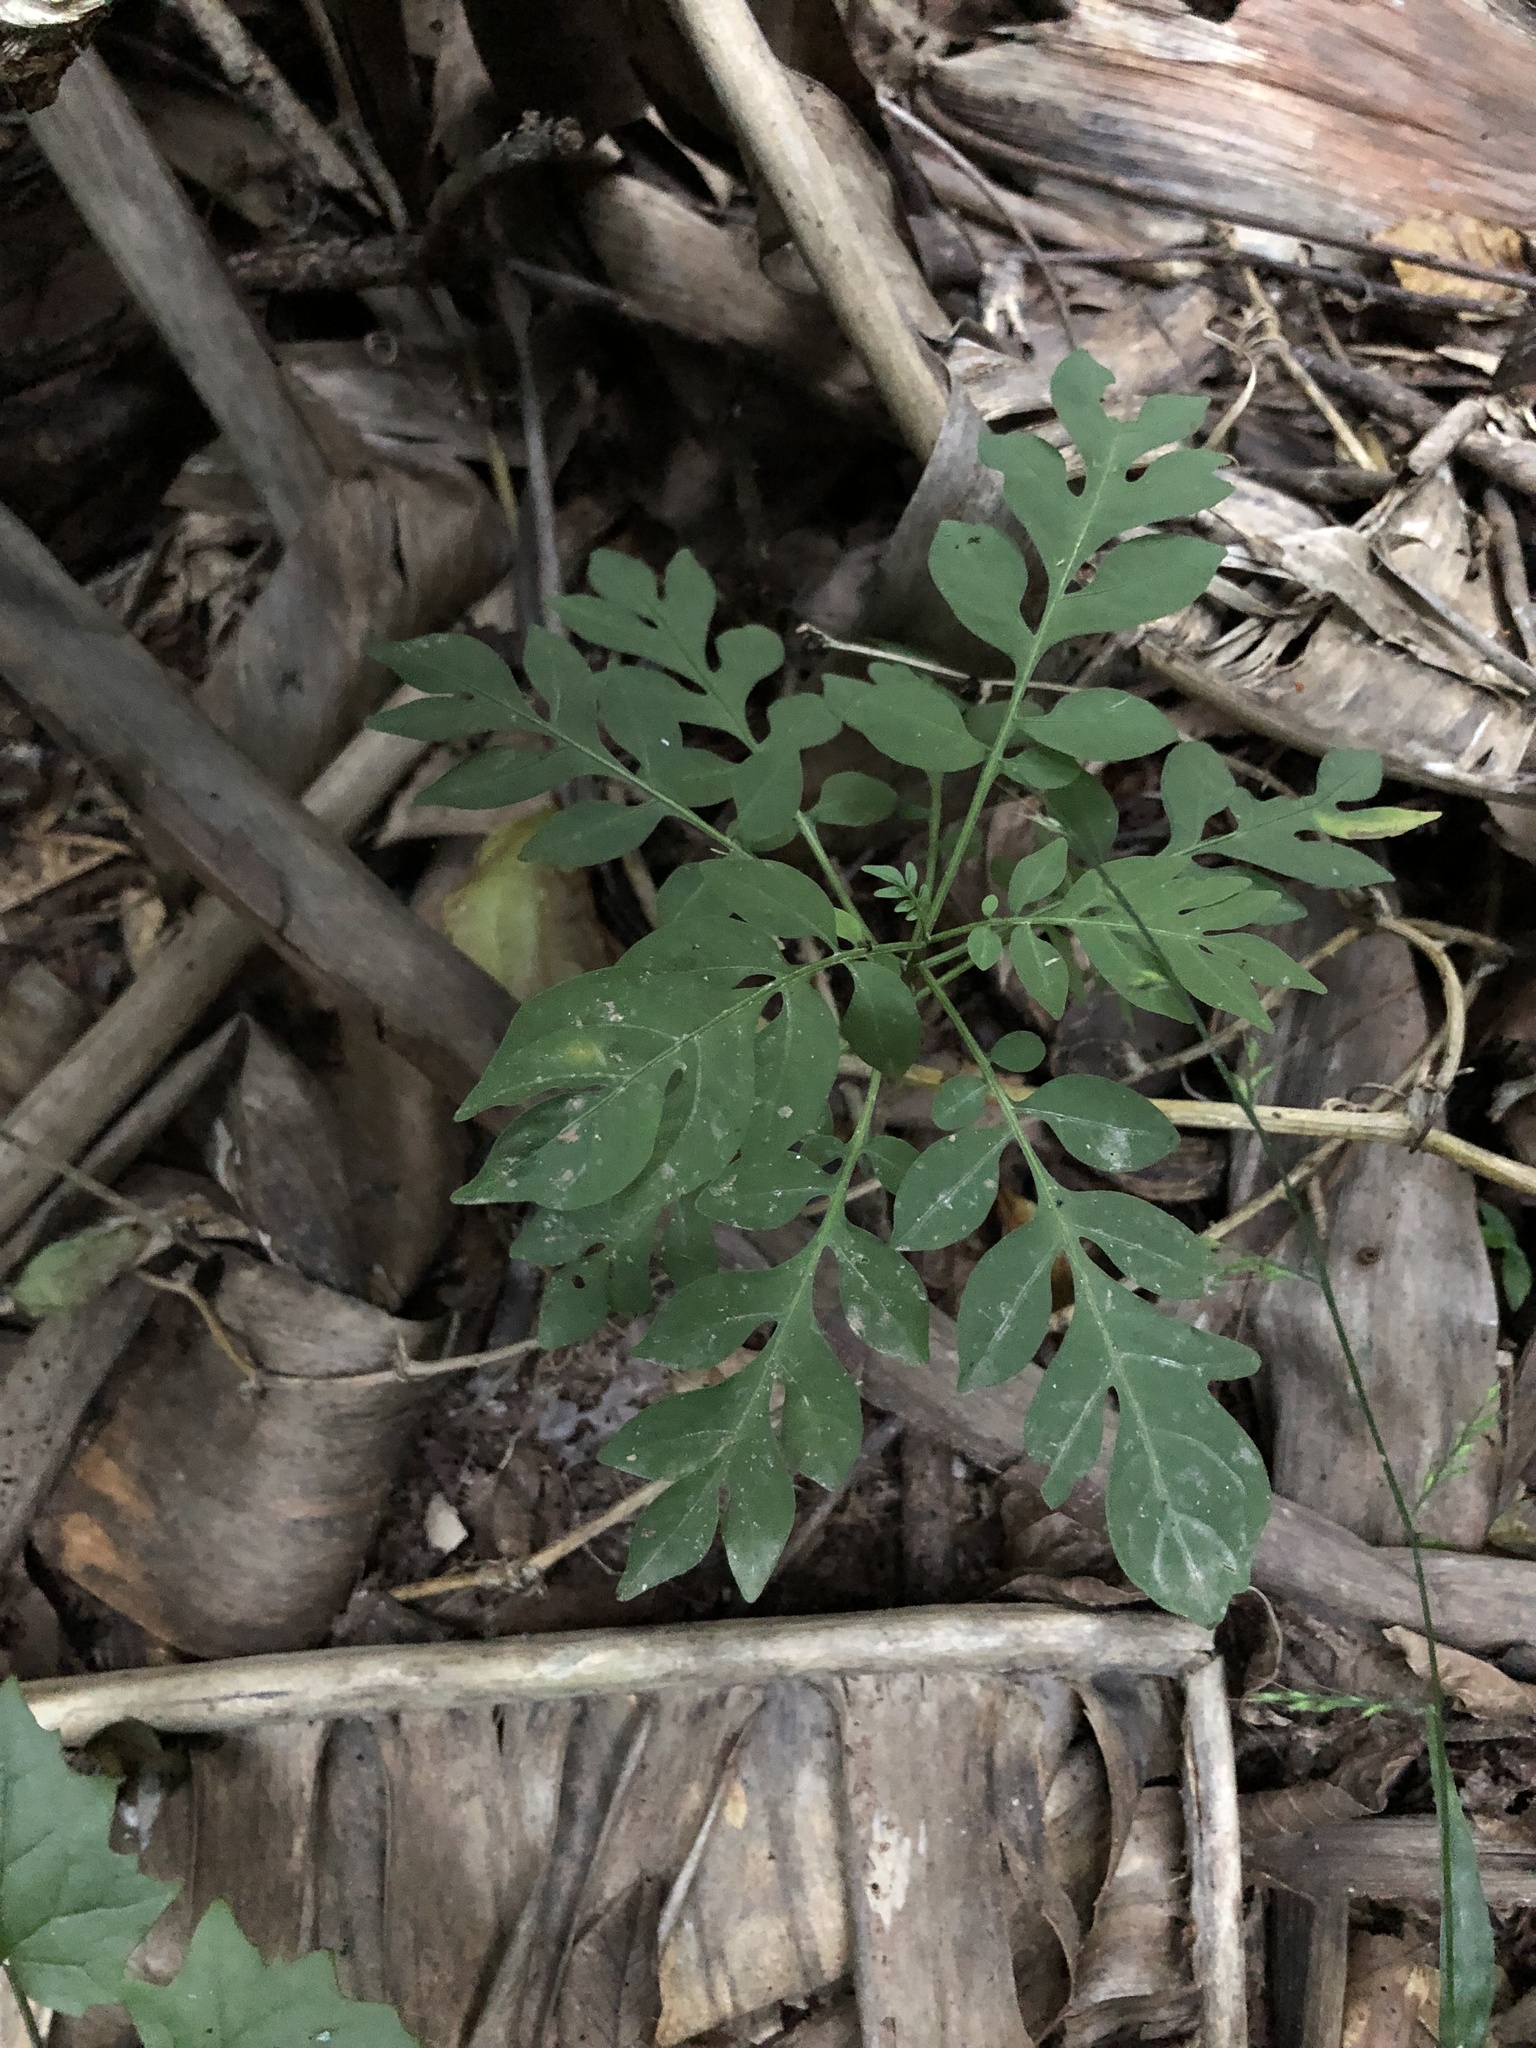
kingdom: Plantae
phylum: Tracheophyta
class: Magnoliopsida
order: Solanales
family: Solanaceae
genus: Solanum
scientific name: Solanum seaforthianum
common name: Brazilian nightshade
